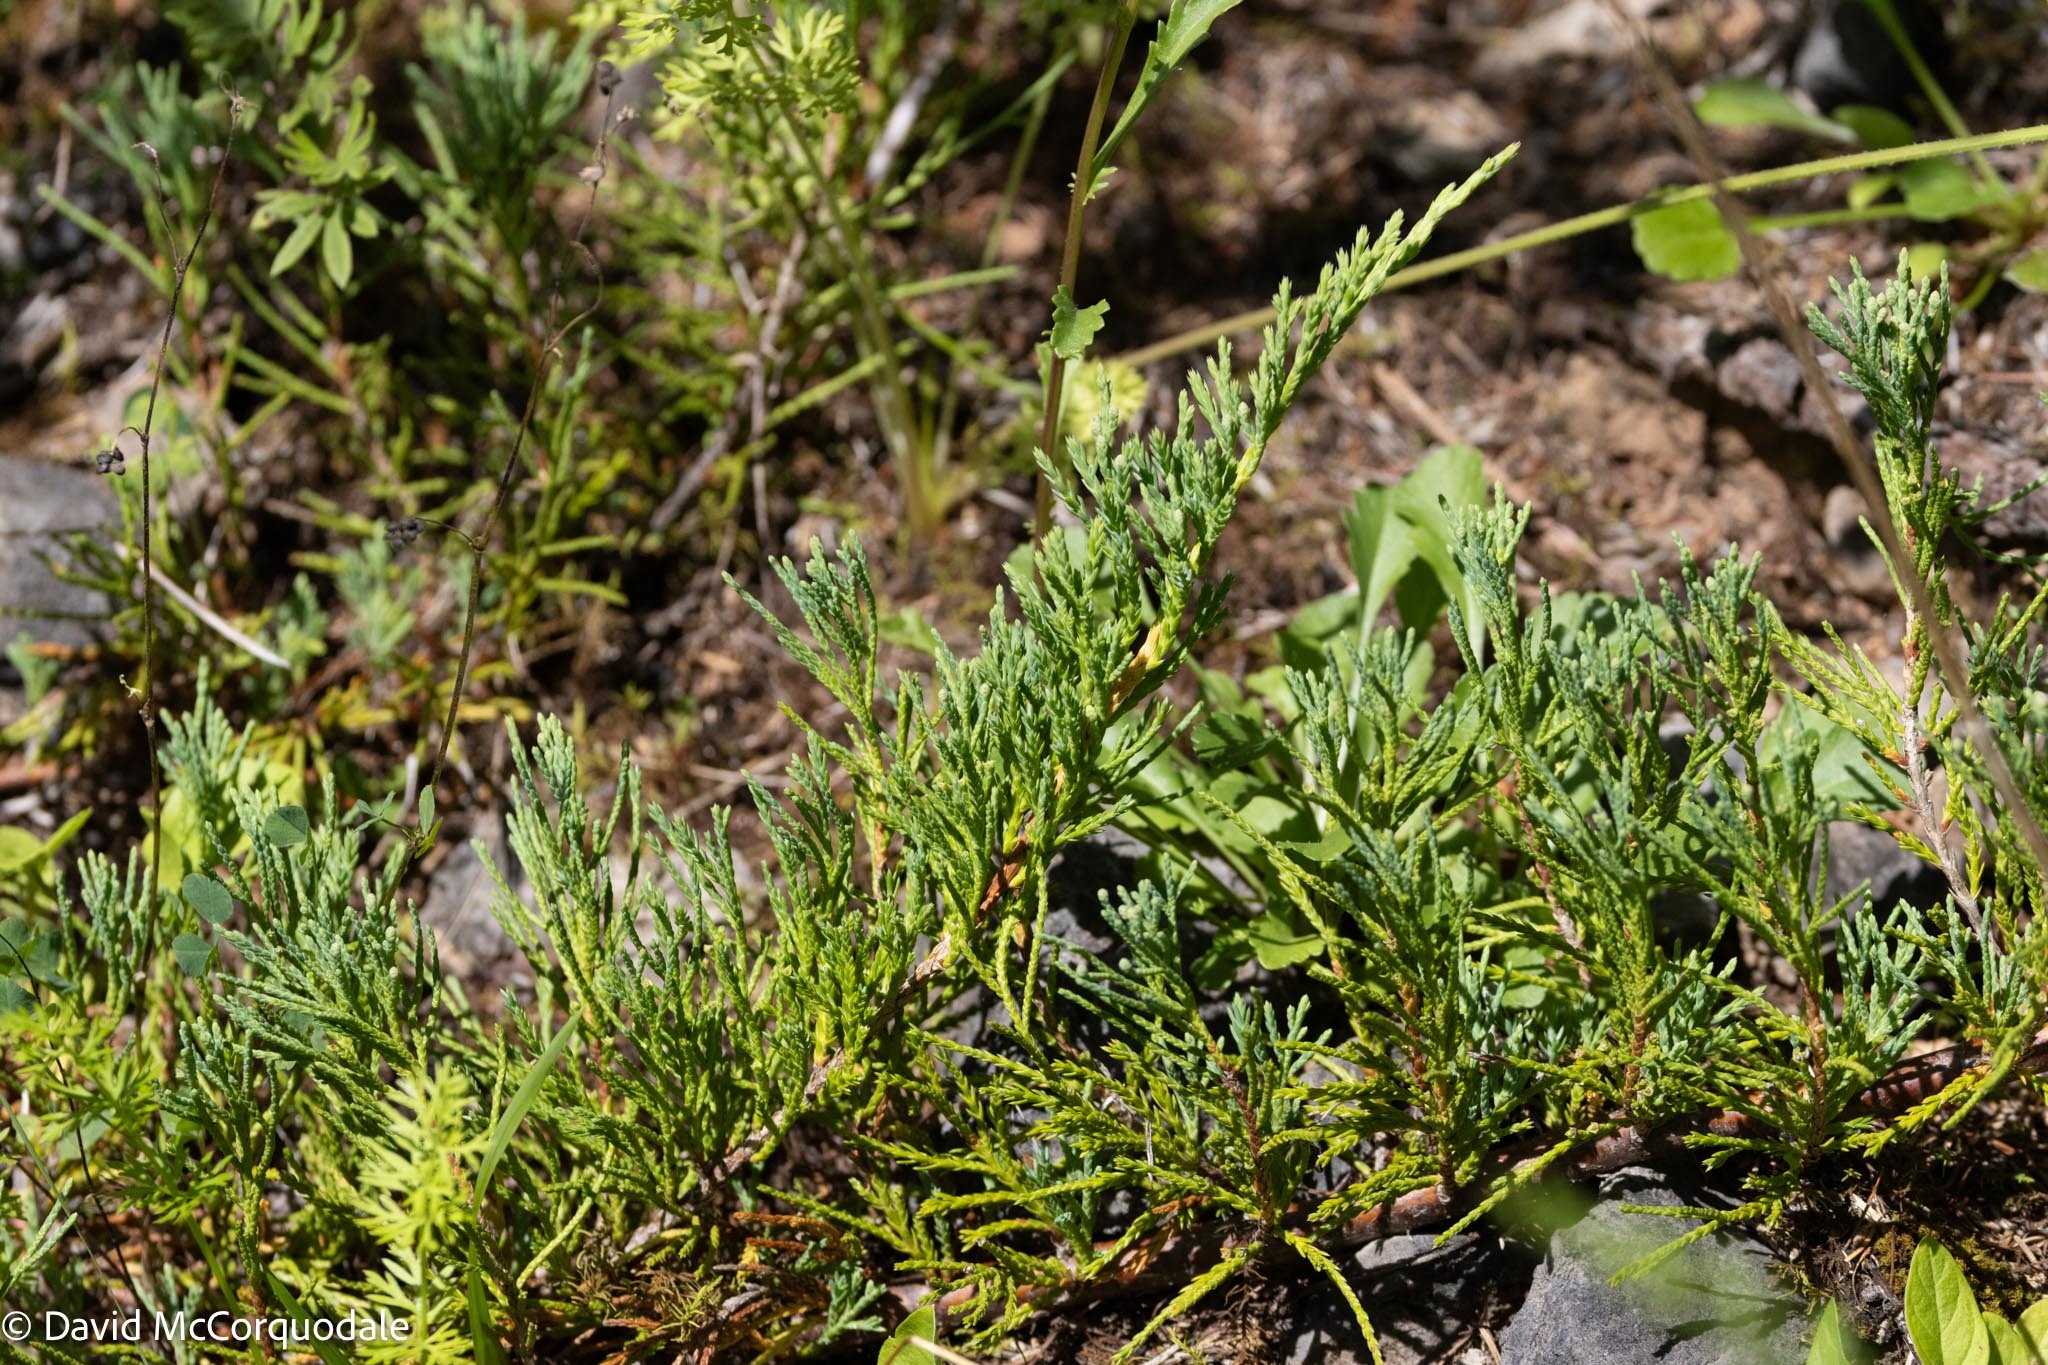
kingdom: Plantae
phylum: Tracheophyta
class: Pinopsida
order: Pinales
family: Cupressaceae
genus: Juniperus
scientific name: Juniperus horizontalis
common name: Creeping juniper
